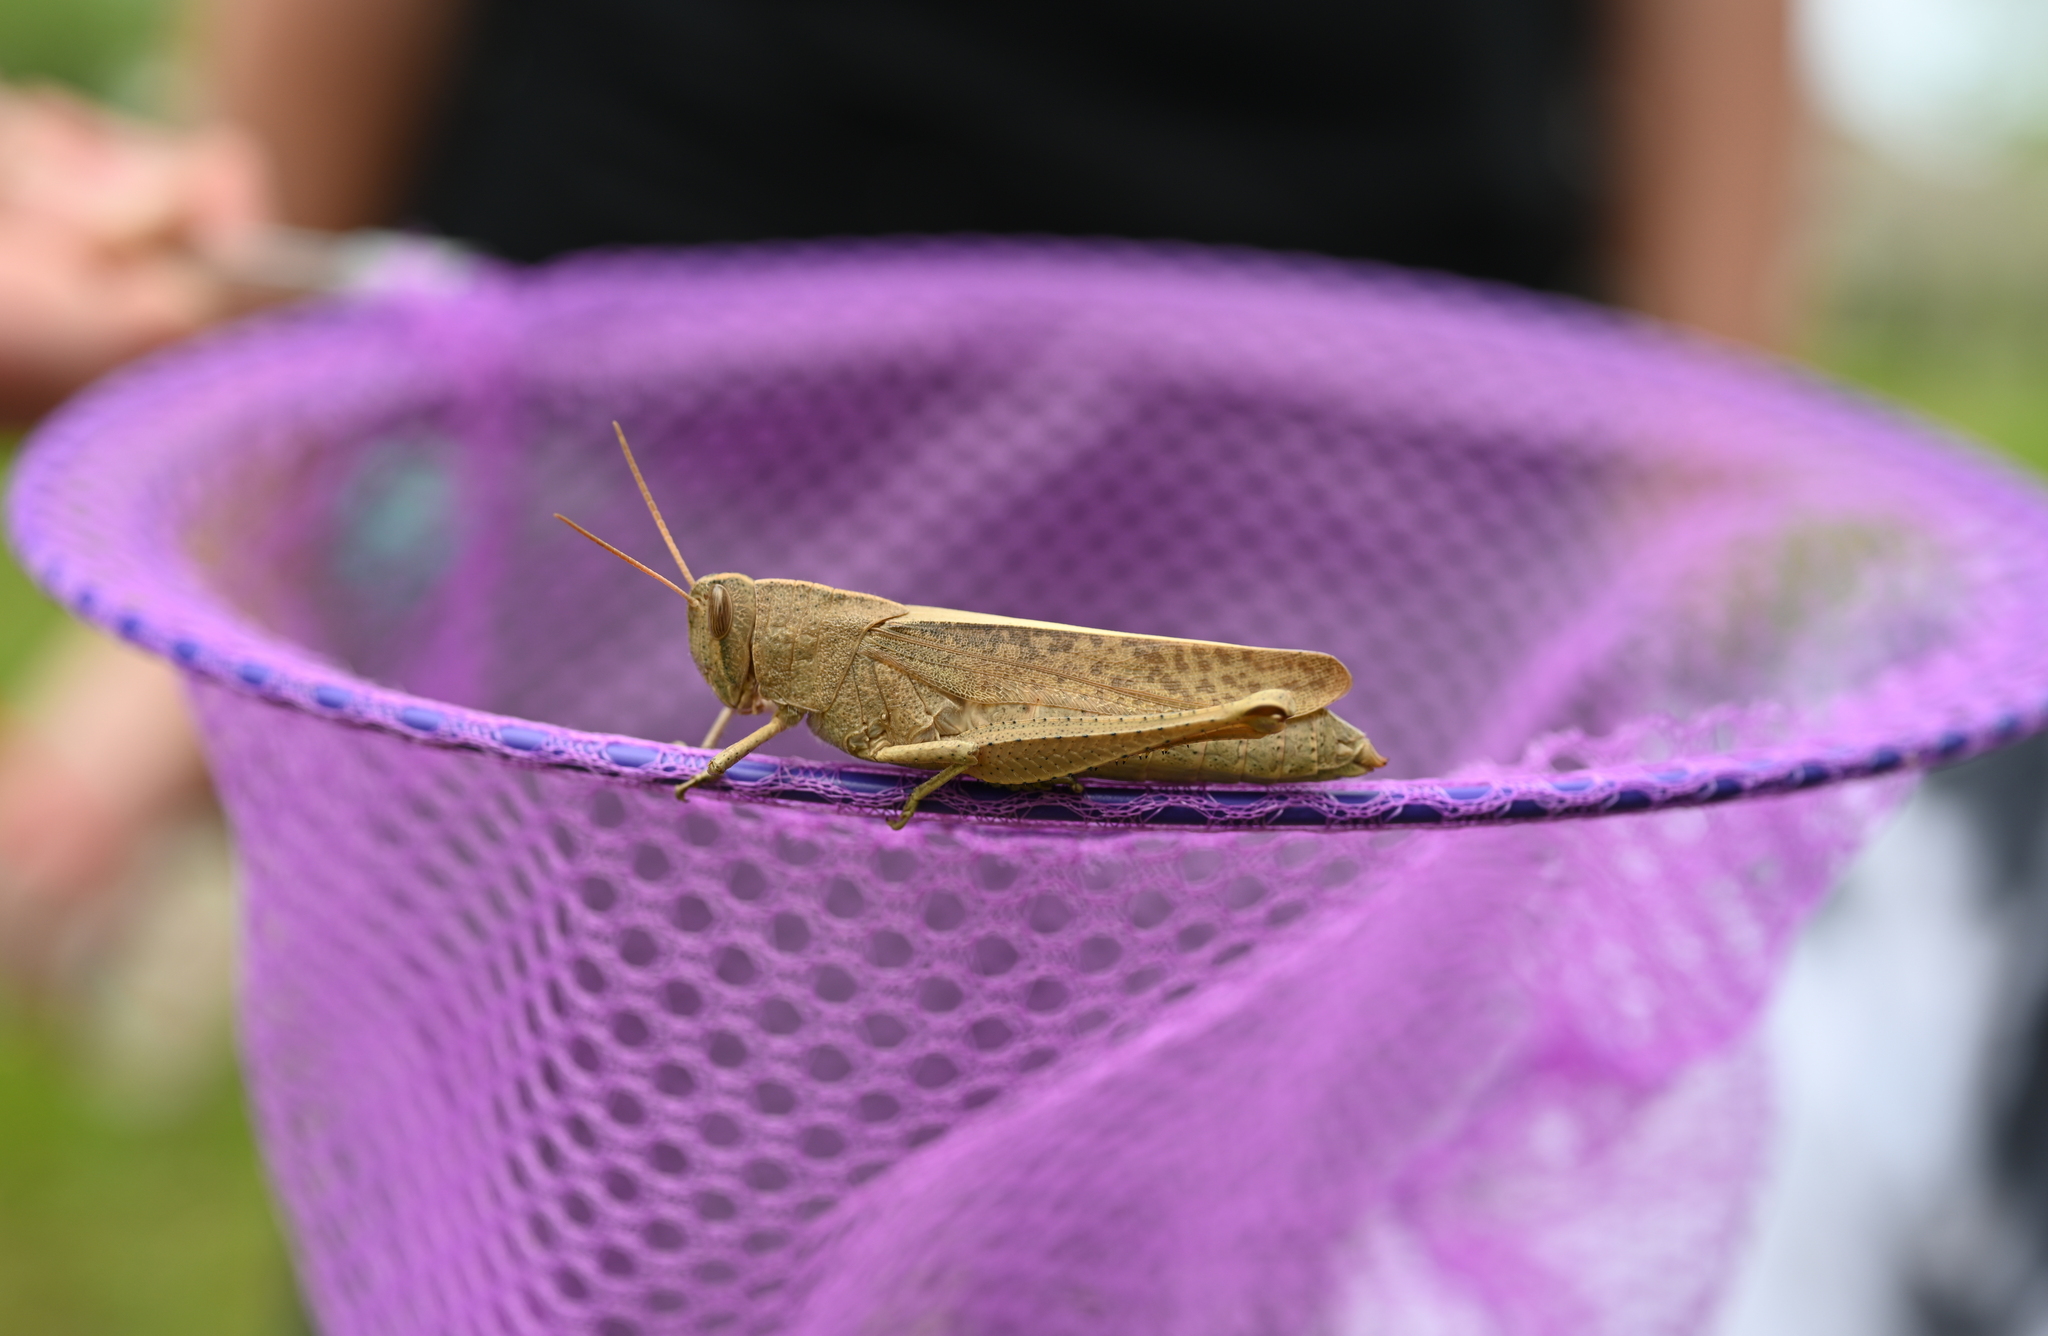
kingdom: Animalia
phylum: Arthropoda
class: Insecta
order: Orthoptera
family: Acrididae
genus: Schistocerca
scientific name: Schistocerca damnifica
